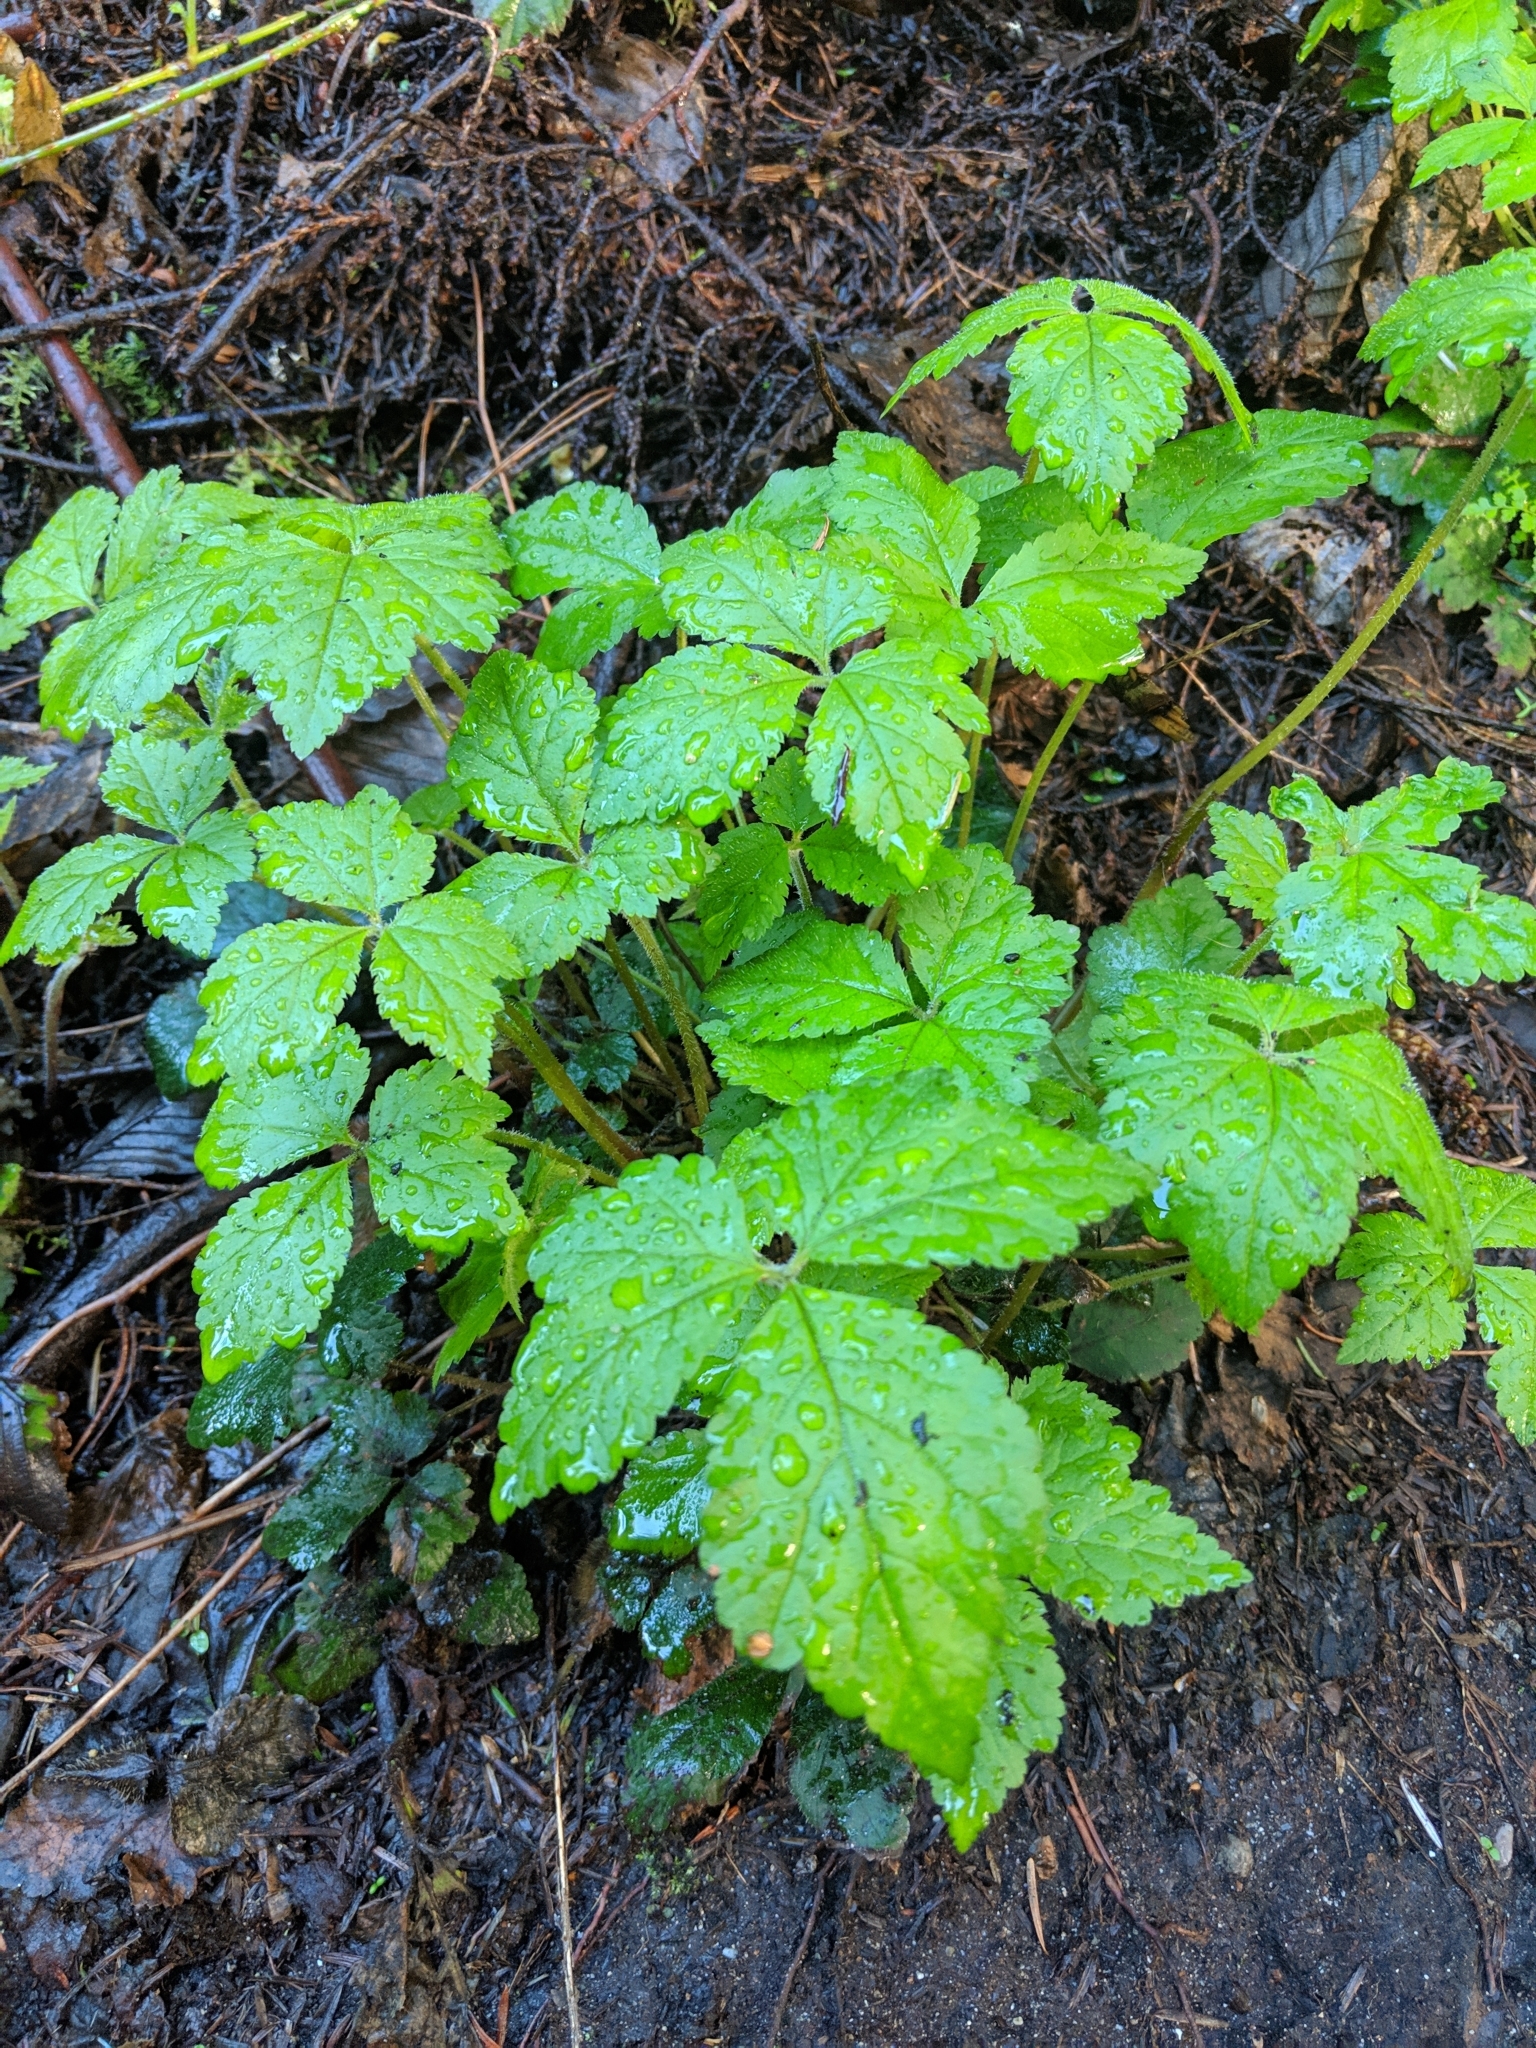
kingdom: Plantae
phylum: Tracheophyta
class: Magnoliopsida
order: Saxifragales
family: Saxifragaceae
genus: Tiarella
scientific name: Tiarella trifoliata
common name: Sugar-scoop
